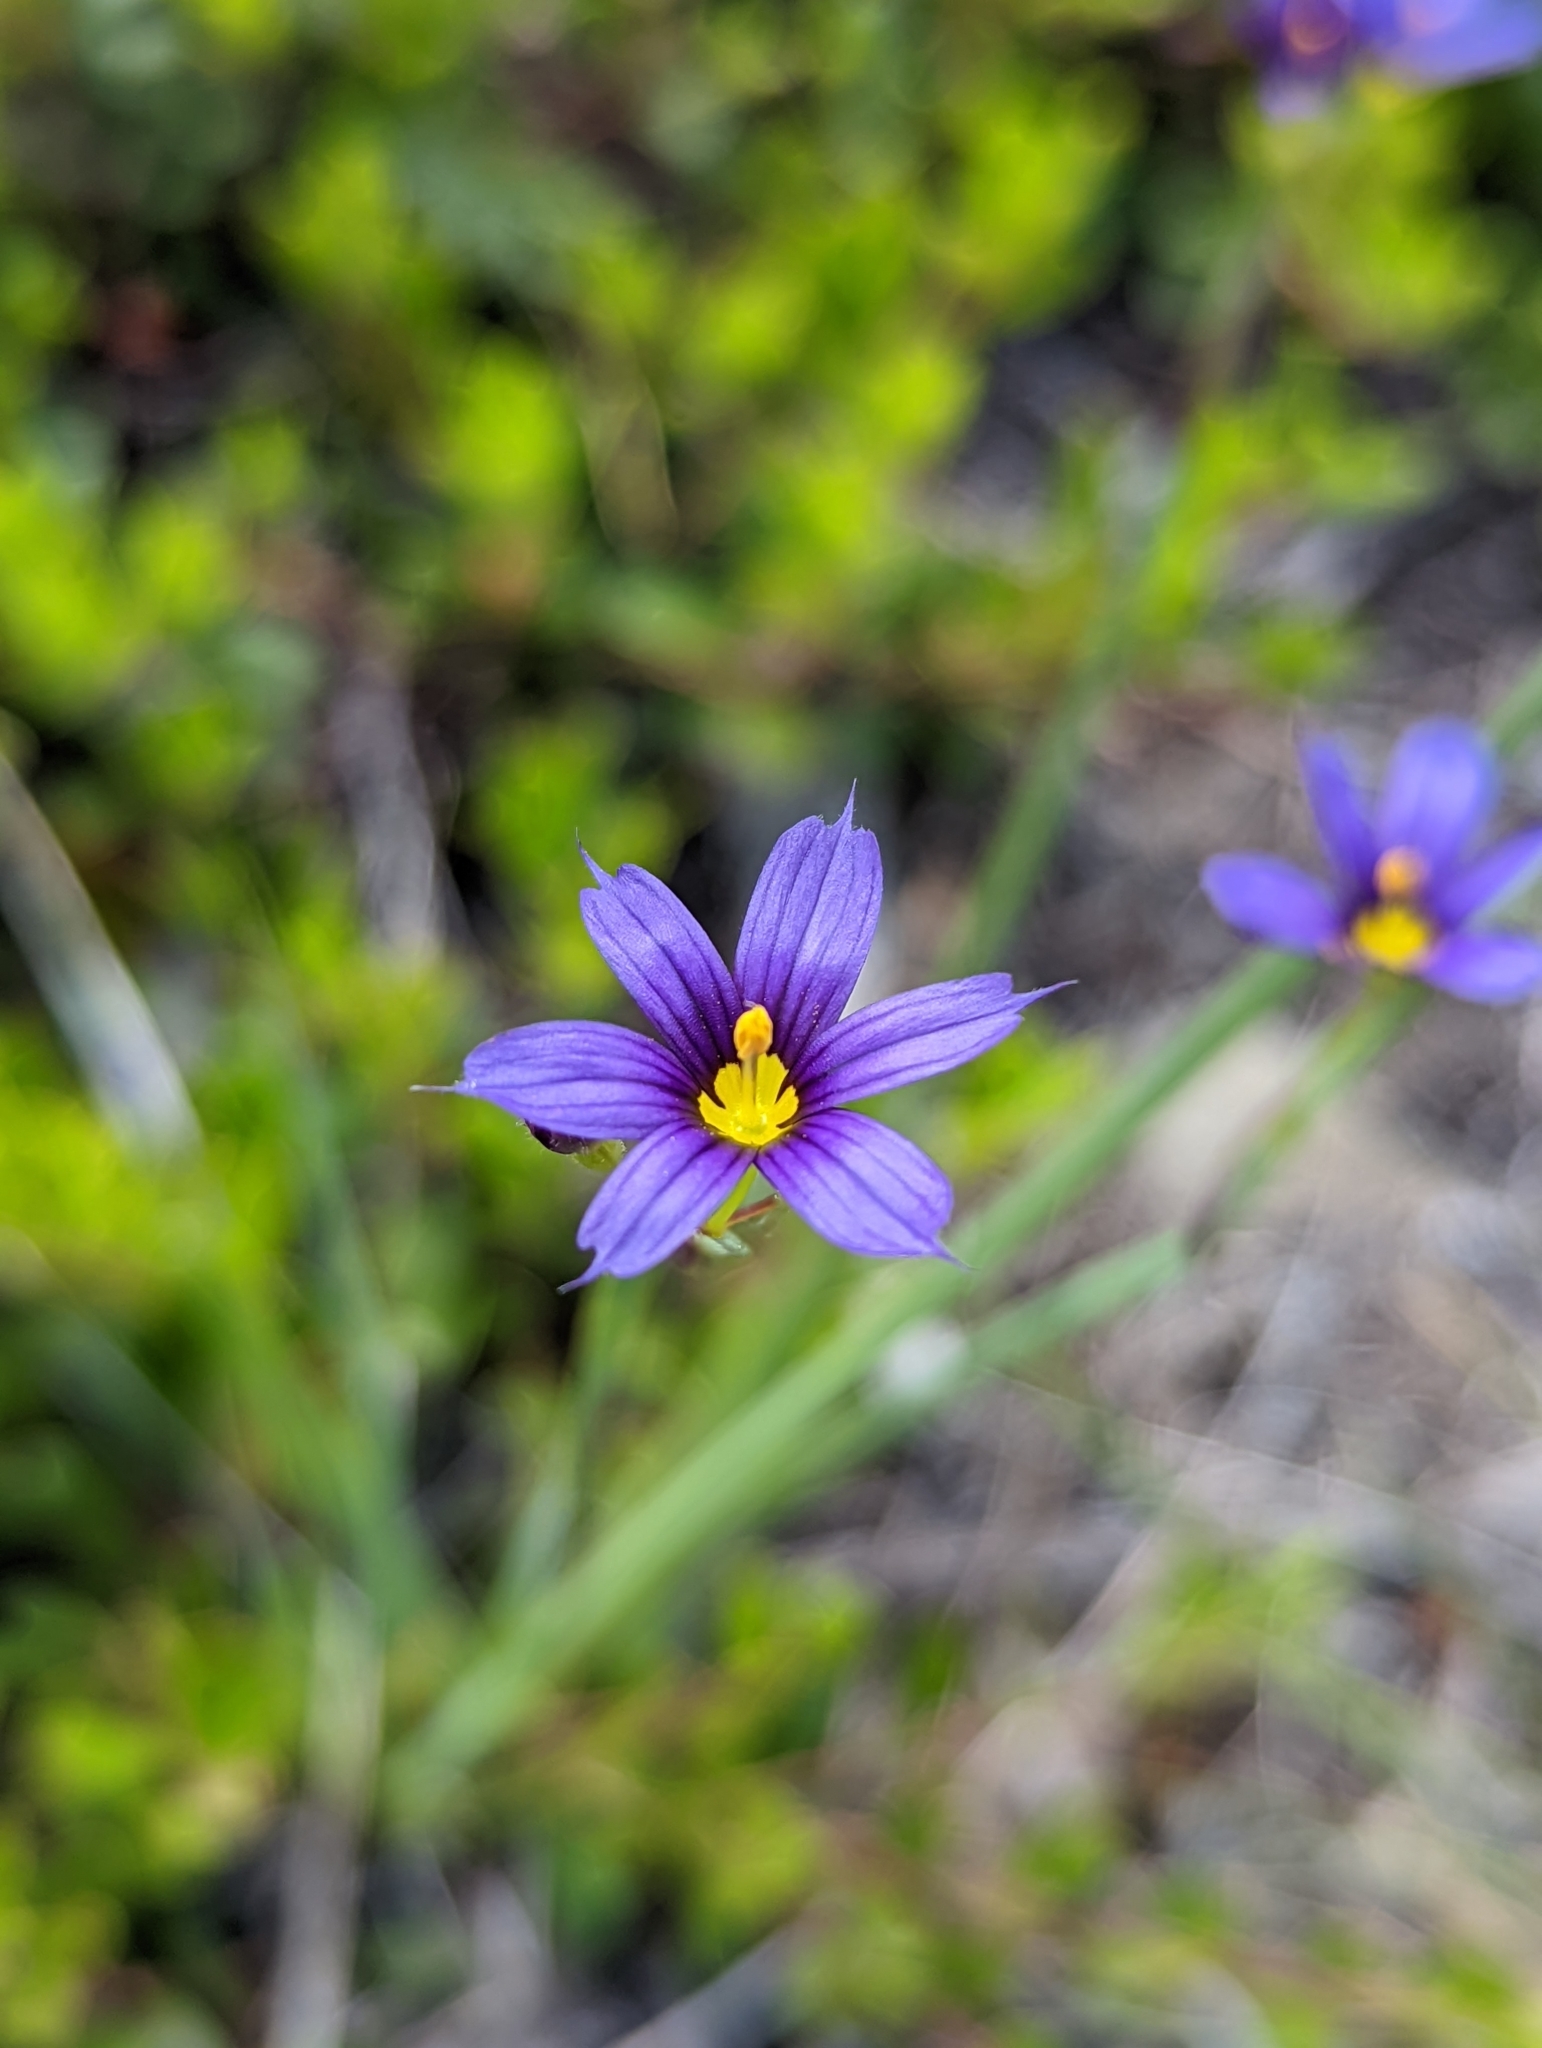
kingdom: Plantae
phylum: Tracheophyta
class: Liliopsida
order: Asparagales
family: Iridaceae
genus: Sisyrinchium
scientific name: Sisyrinchium montanum
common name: American blue-eyed-grass
